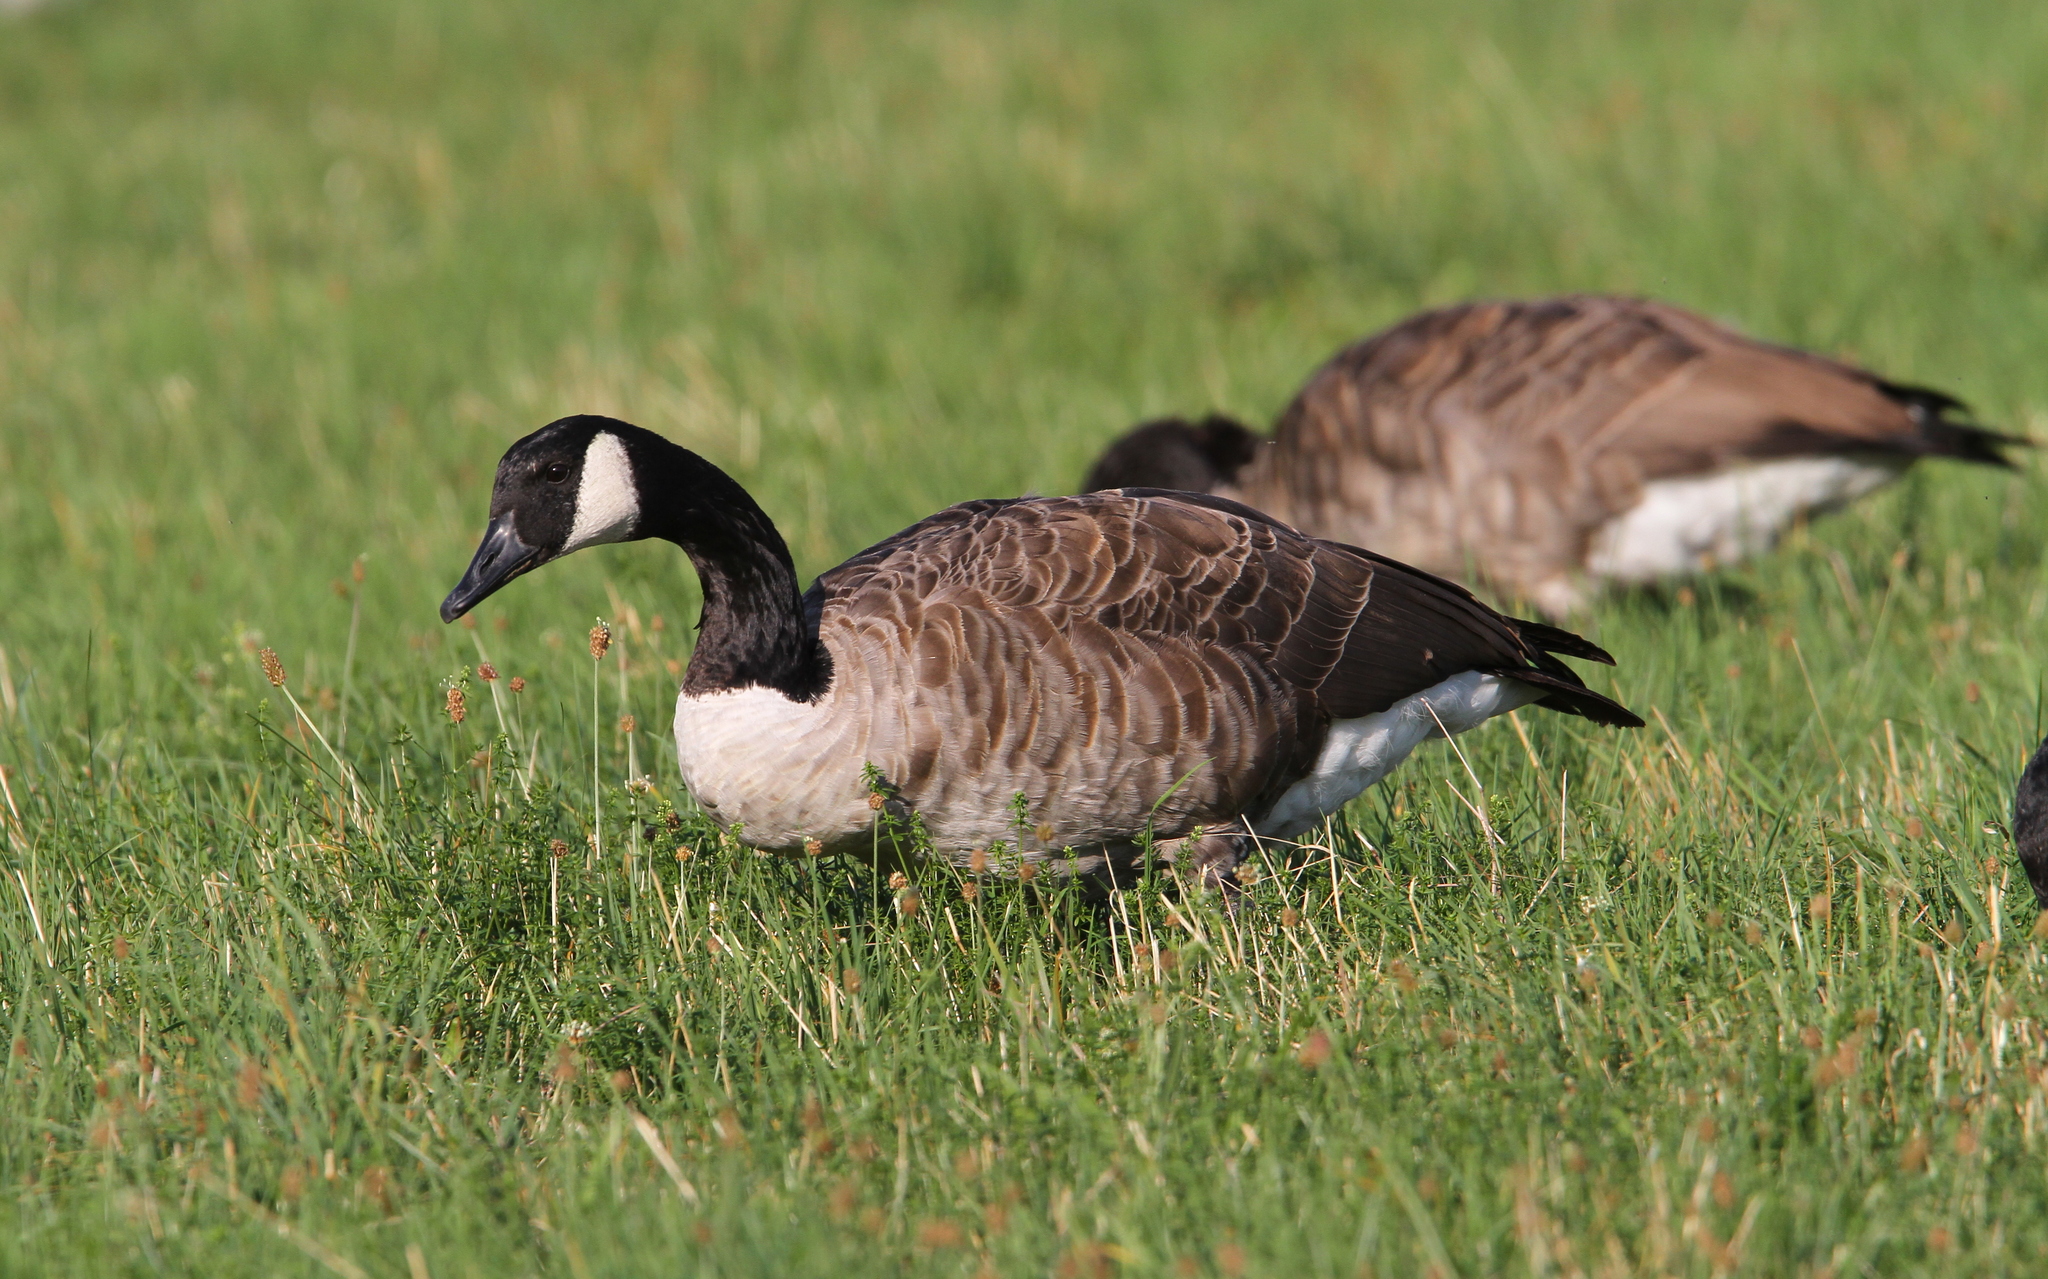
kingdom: Animalia
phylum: Chordata
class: Aves
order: Anseriformes
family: Anatidae
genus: Branta
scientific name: Branta canadensis
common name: Canada goose
